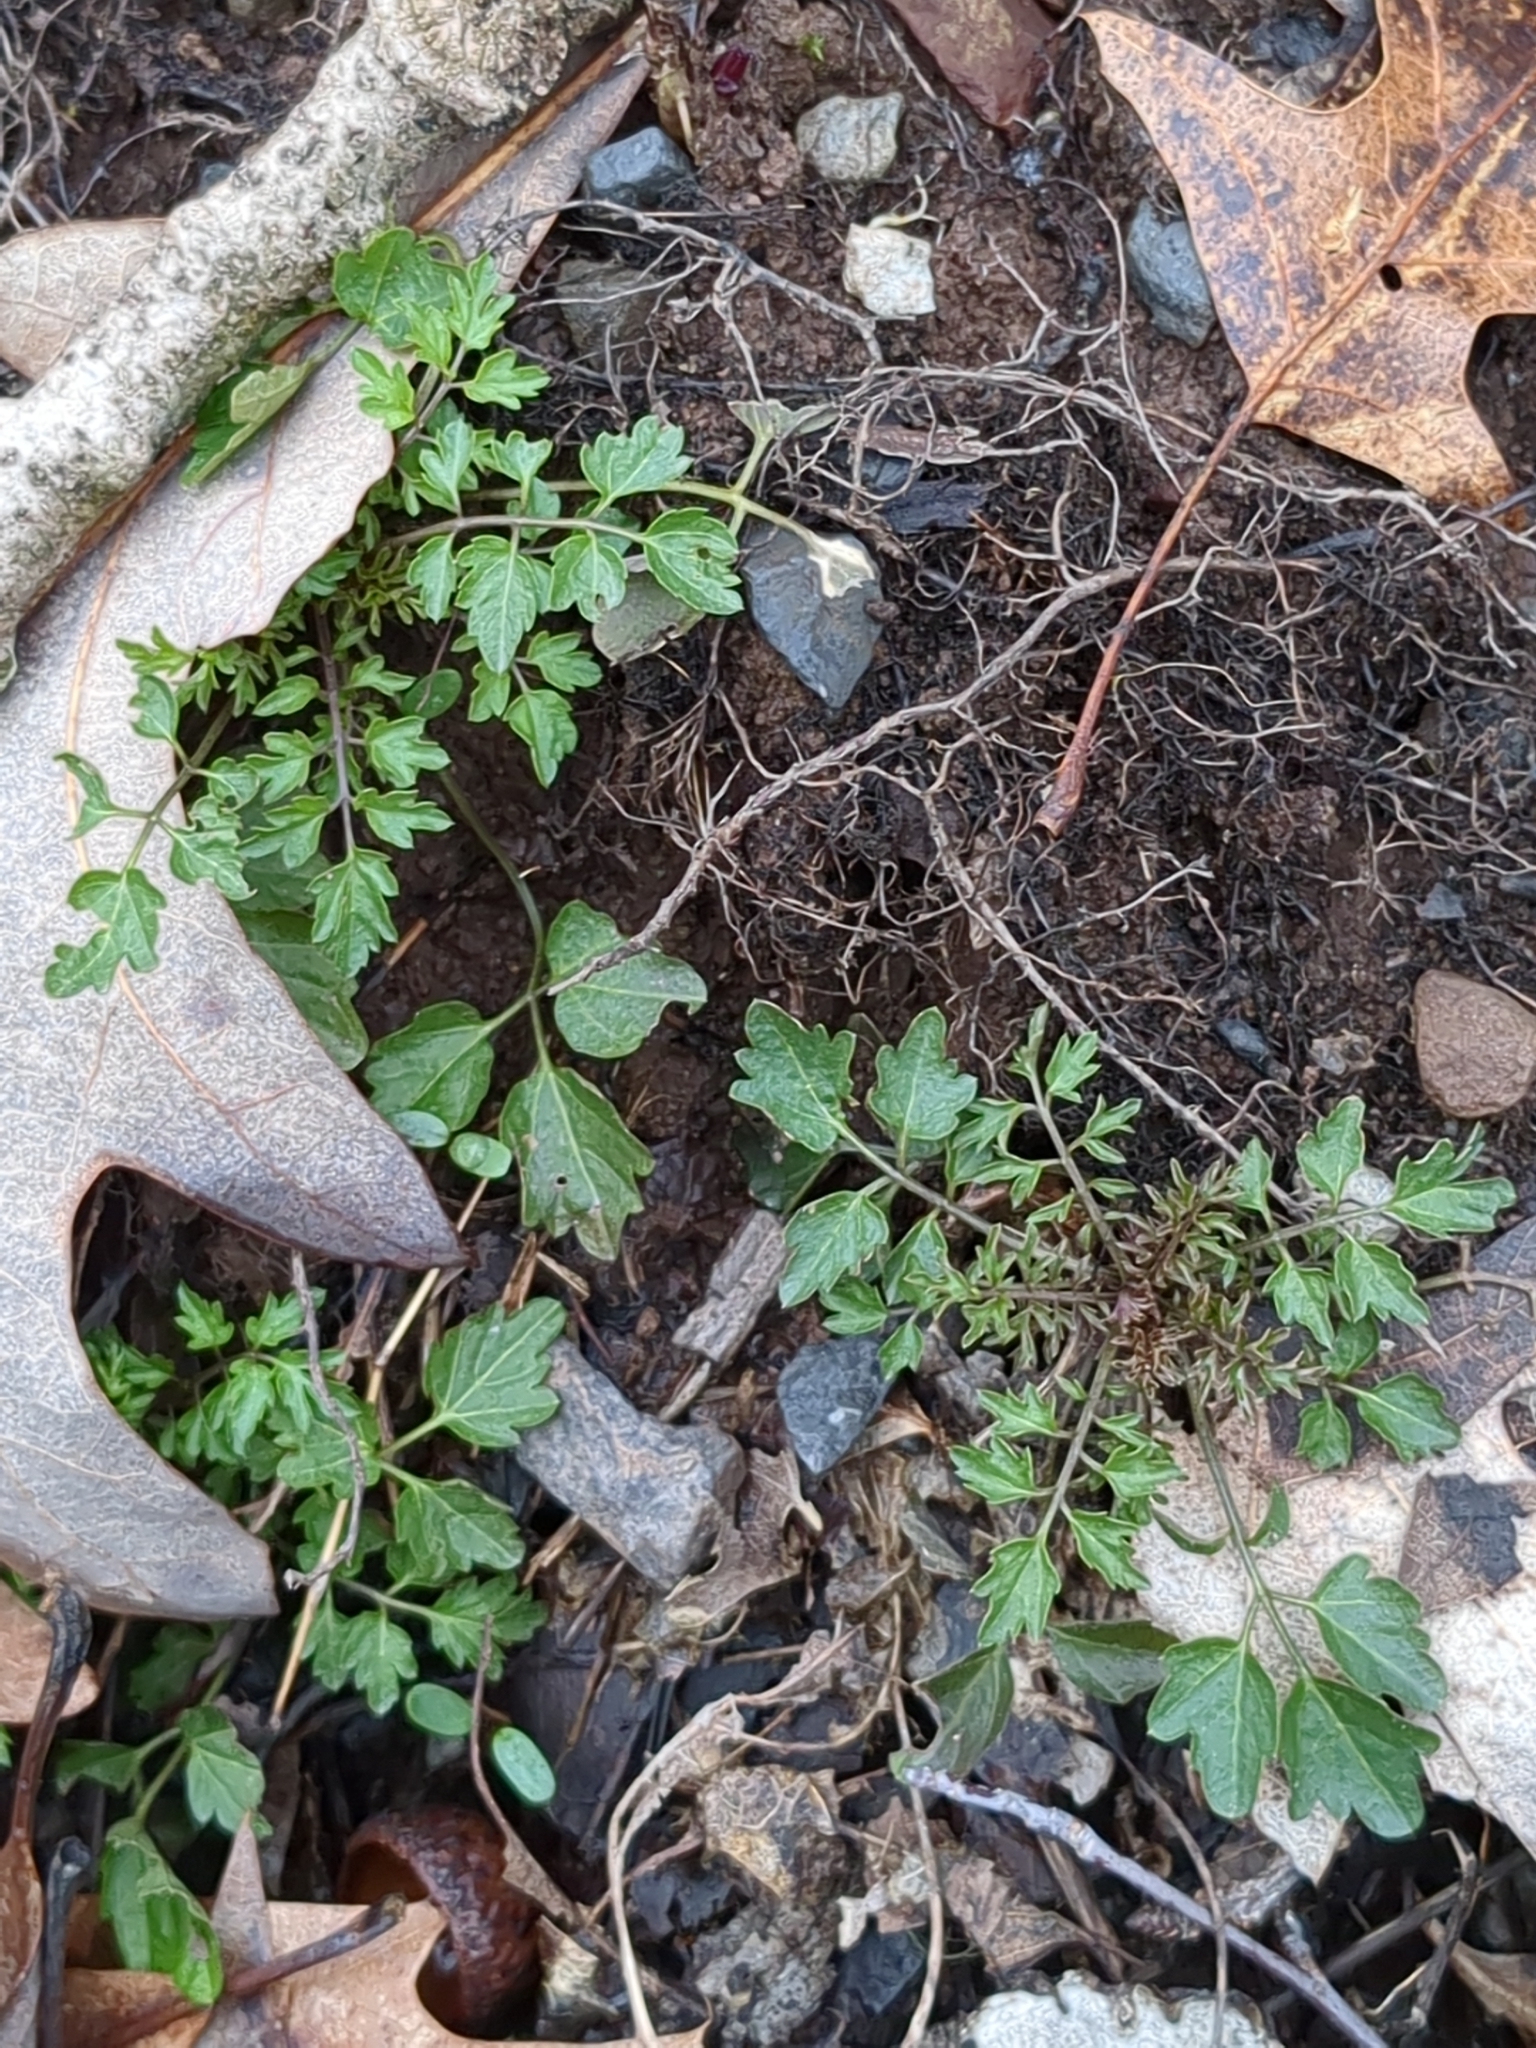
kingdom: Plantae
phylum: Tracheophyta
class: Magnoliopsida
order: Brassicales
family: Brassicaceae
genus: Cardamine
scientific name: Cardamine impatiens
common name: Narrow-leaved bitter-cress
